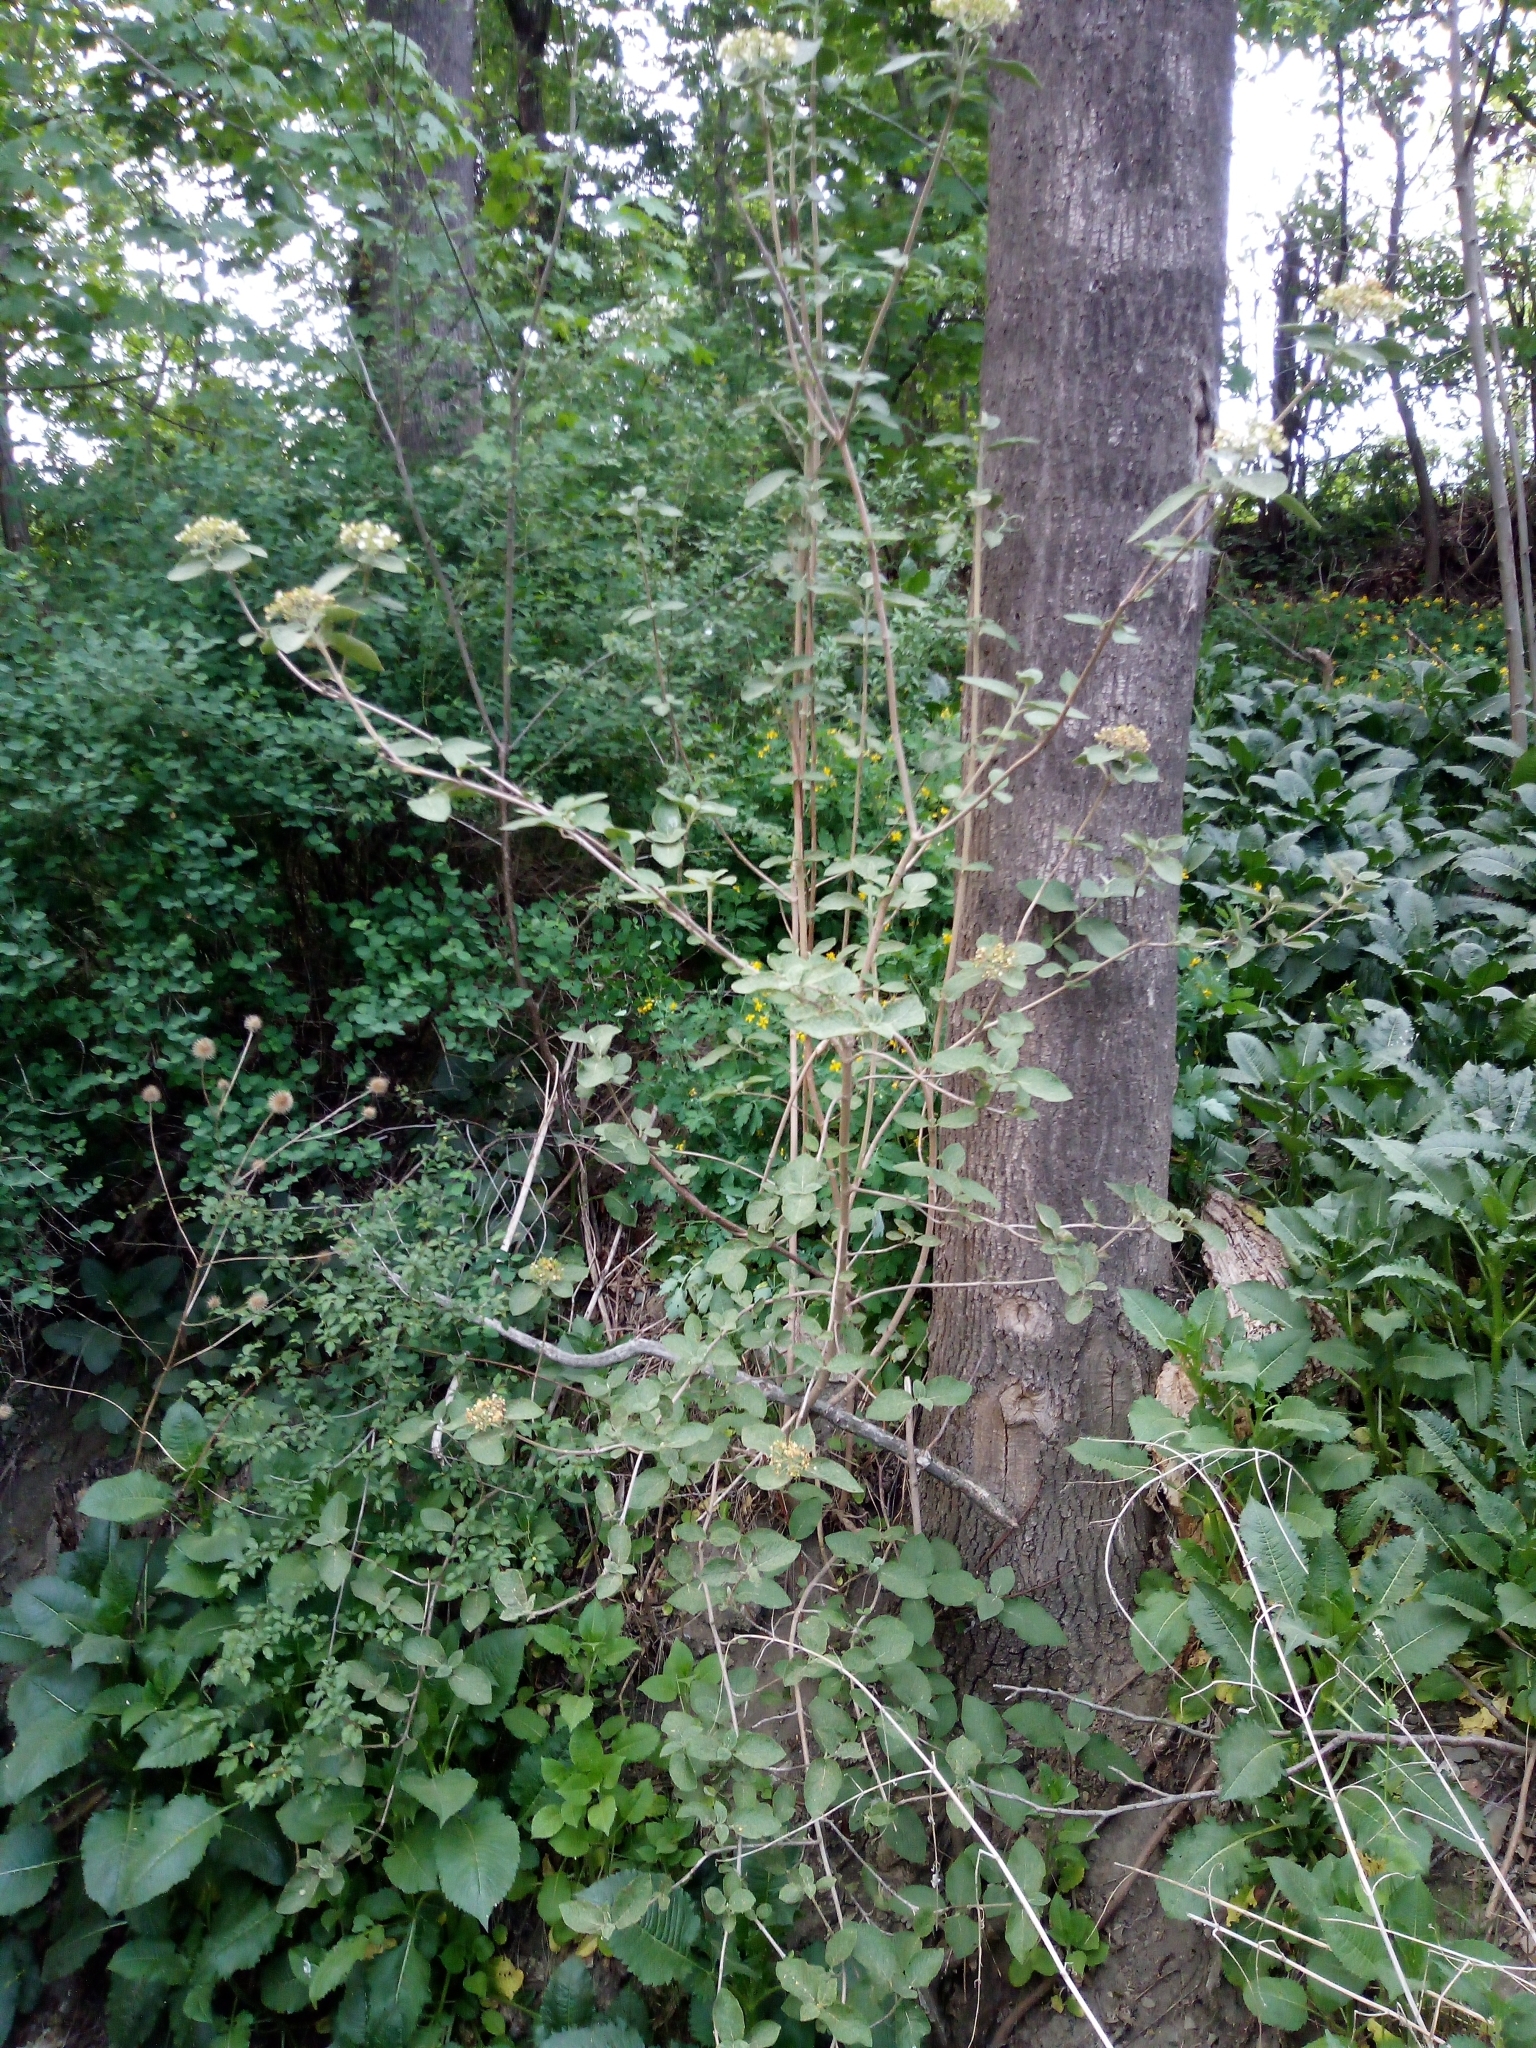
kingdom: Plantae
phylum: Tracheophyta
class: Magnoliopsida
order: Dipsacales
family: Viburnaceae
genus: Viburnum
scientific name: Viburnum lantana
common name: Wayfaring tree
